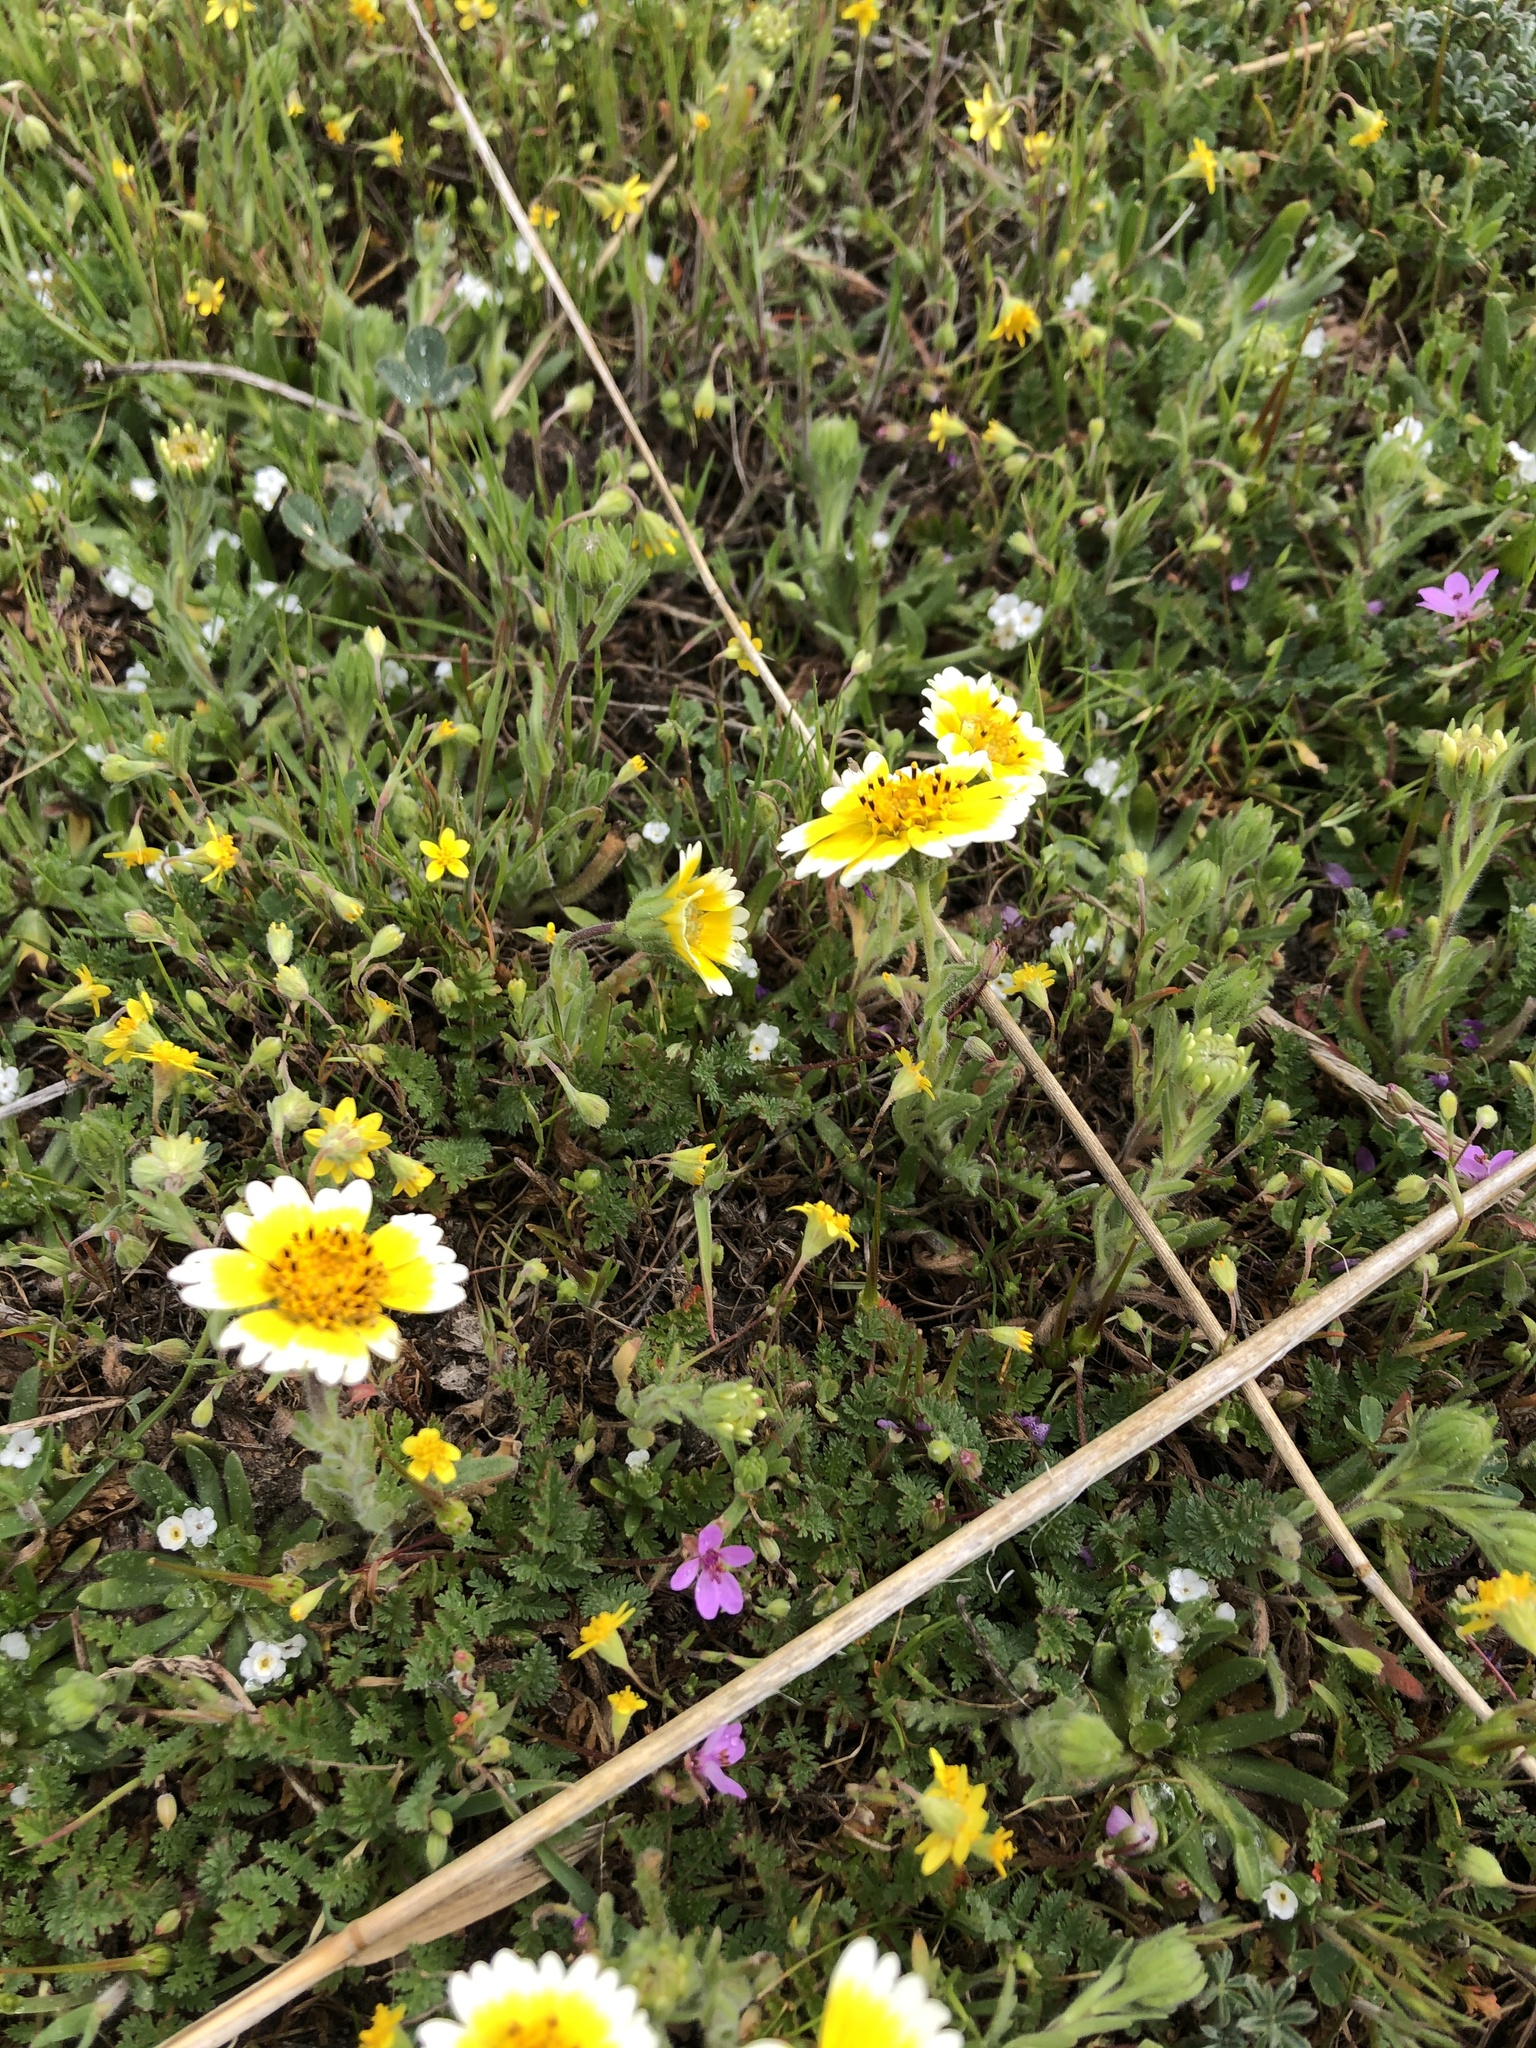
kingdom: Plantae
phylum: Tracheophyta
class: Magnoliopsida
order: Asterales
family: Asteraceae
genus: Layia
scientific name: Layia platyglossa
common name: Tidy-tips
